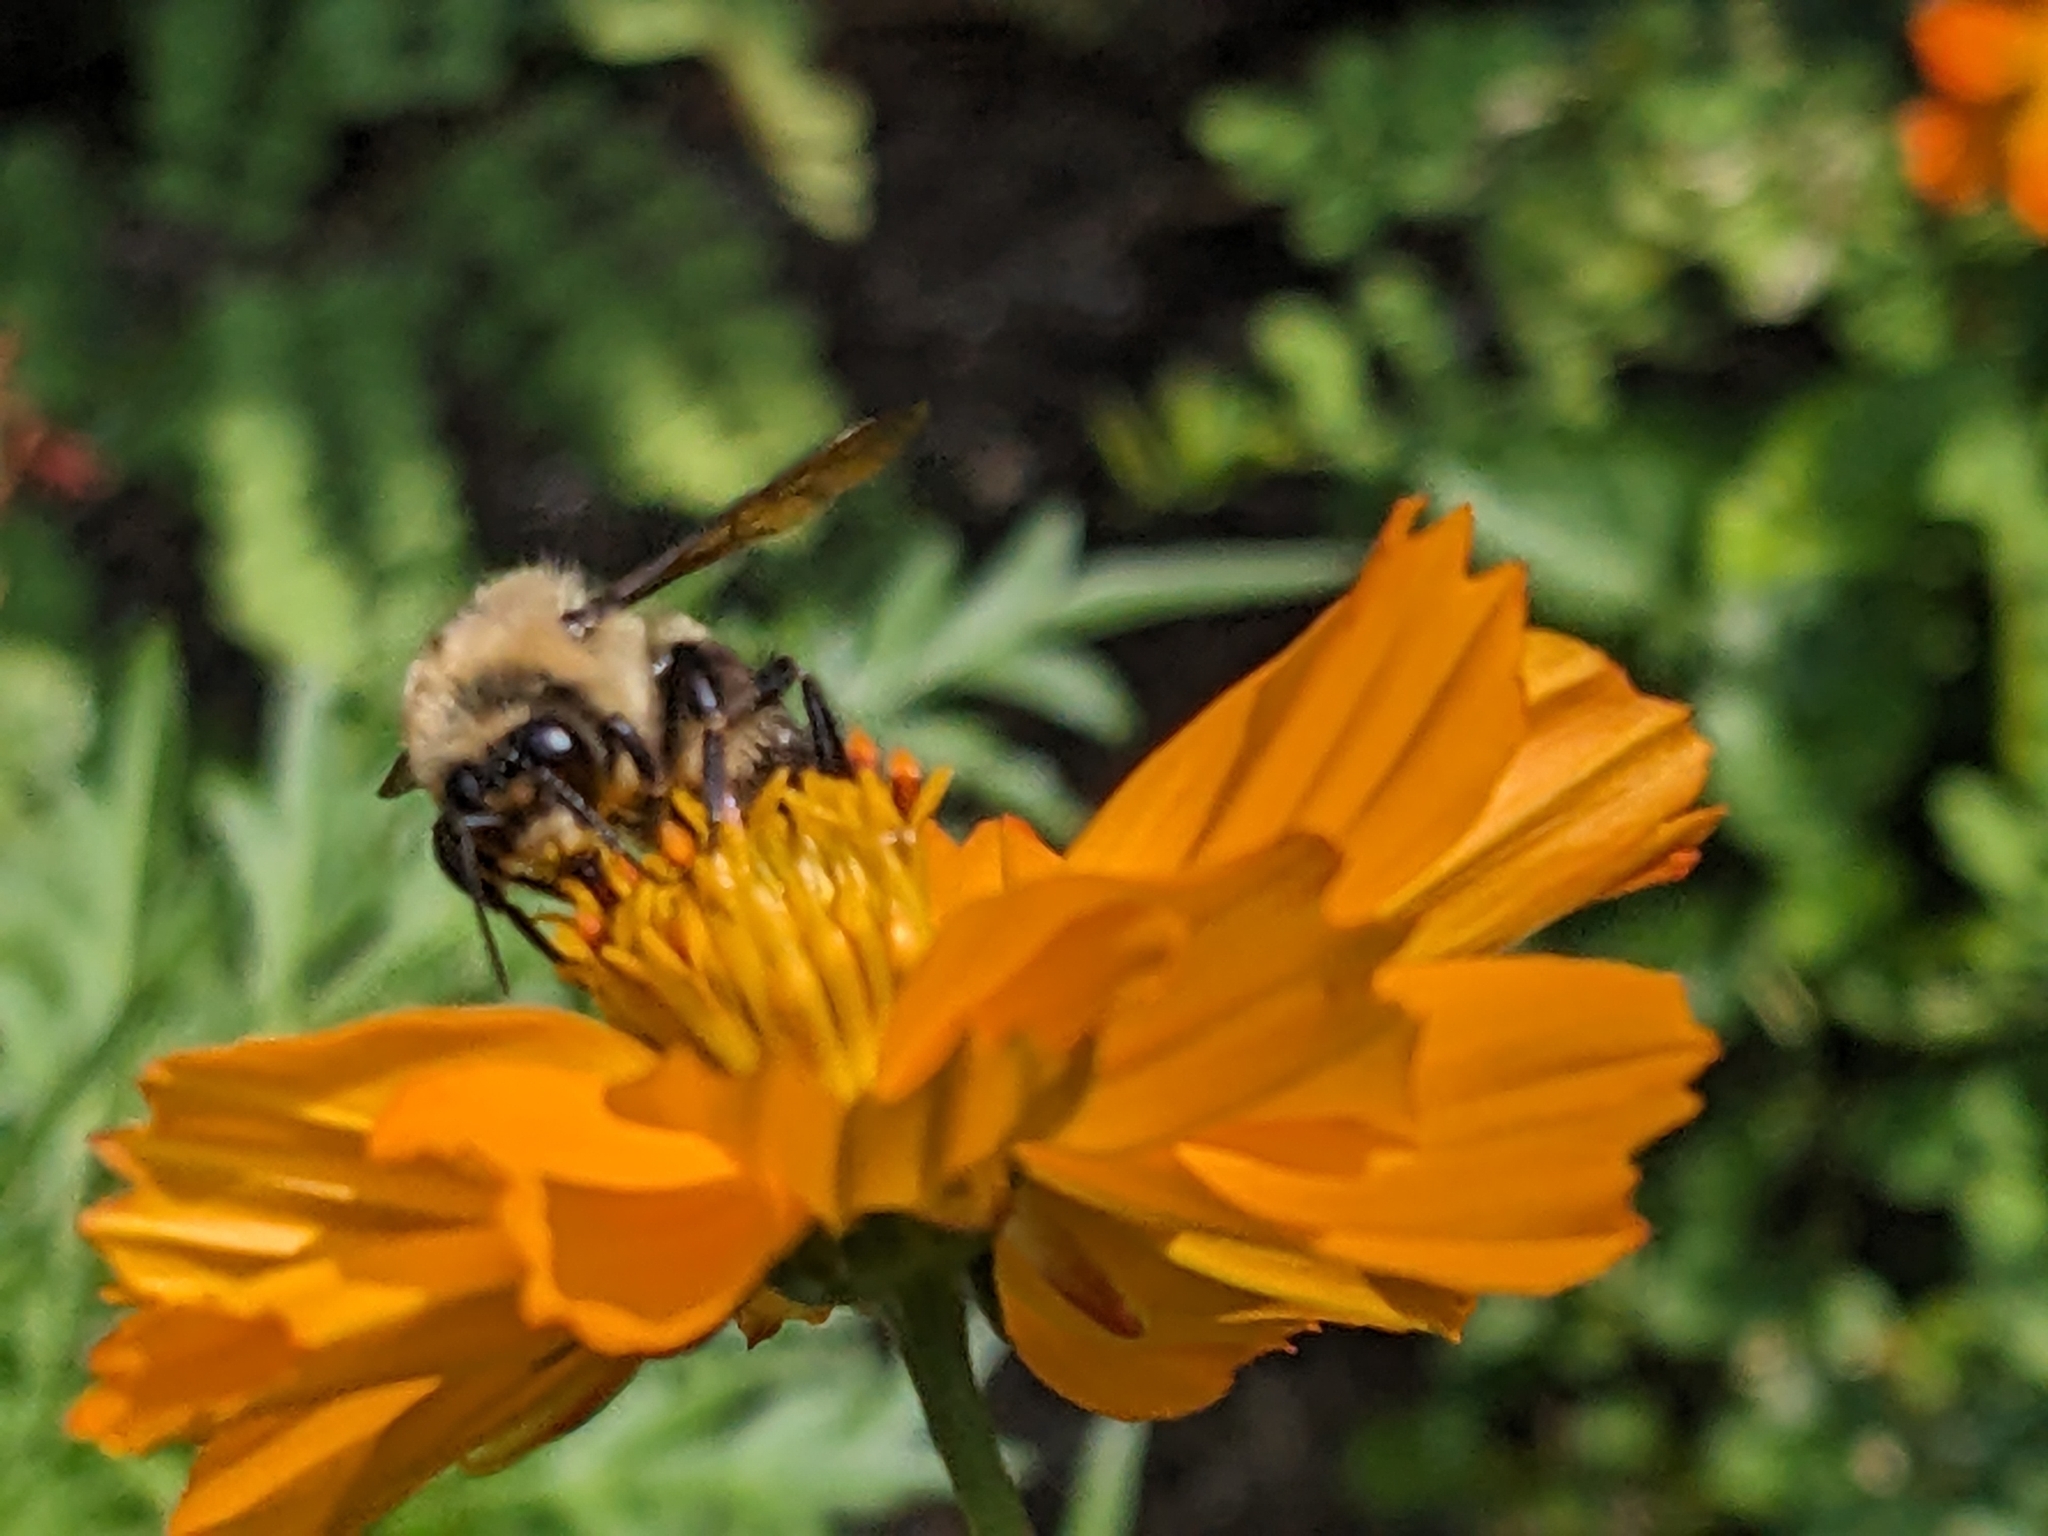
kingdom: Animalia
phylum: Arthropoda
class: Insecta
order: Hymenoptera
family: Apidae
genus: Bombus
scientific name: Bombus griseocollis
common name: Brown-belted bumble bee
